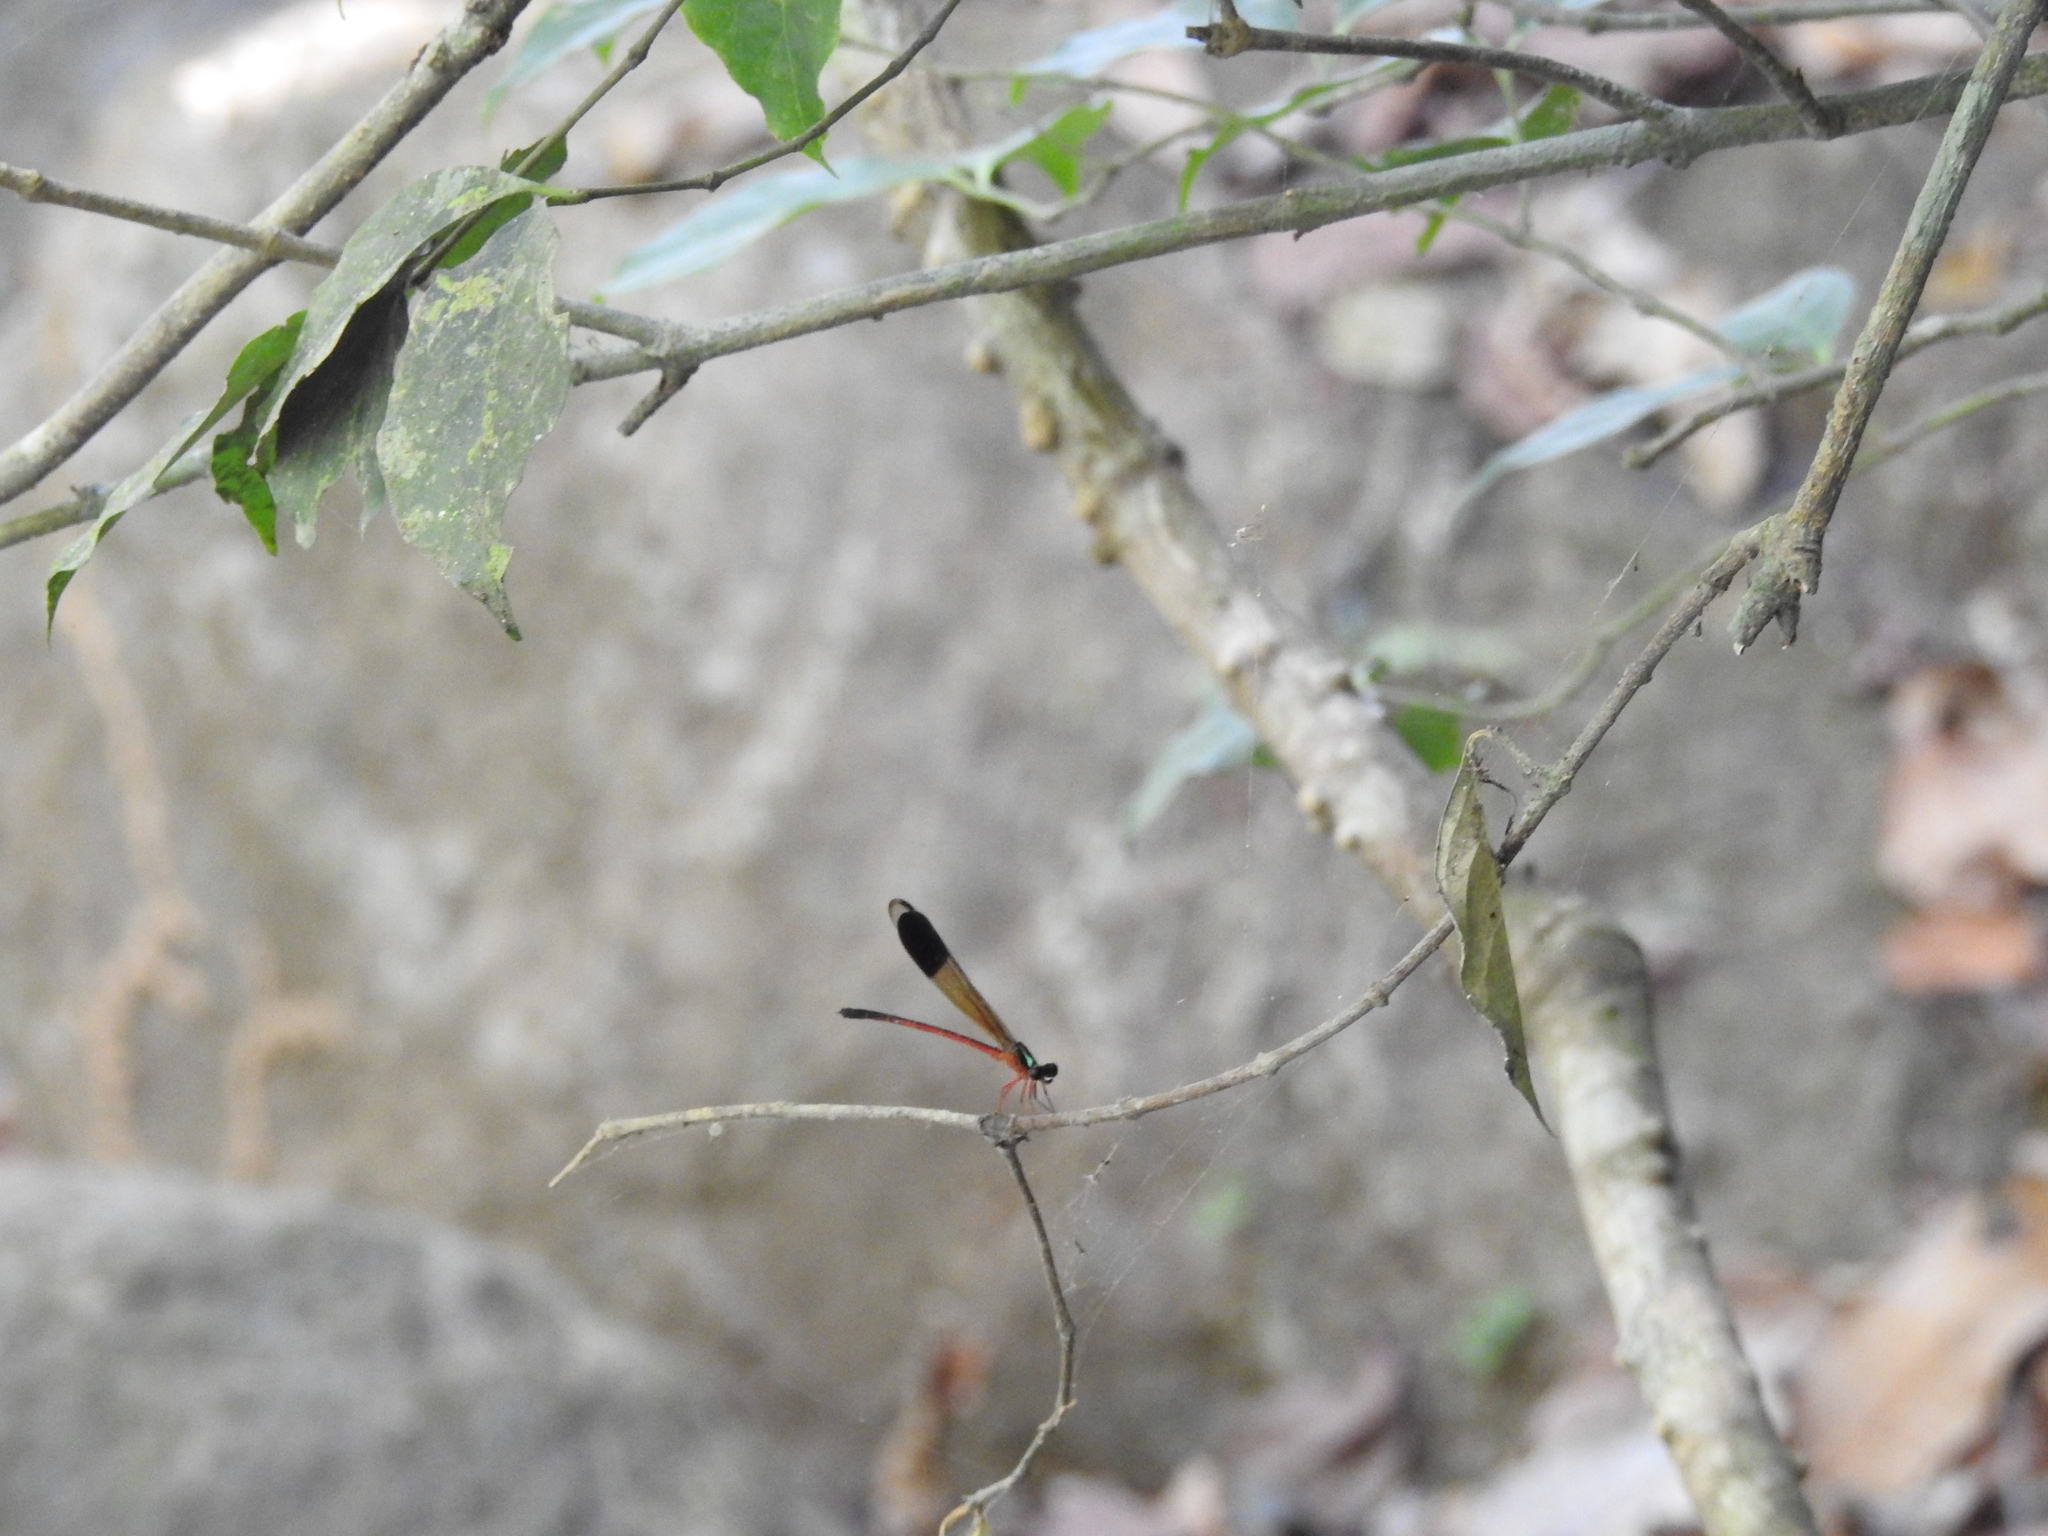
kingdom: Animalia
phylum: Arthropoda
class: Insecta
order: Odonata
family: Euphaeidae
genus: Euphaea
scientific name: Euphaea fraseri
